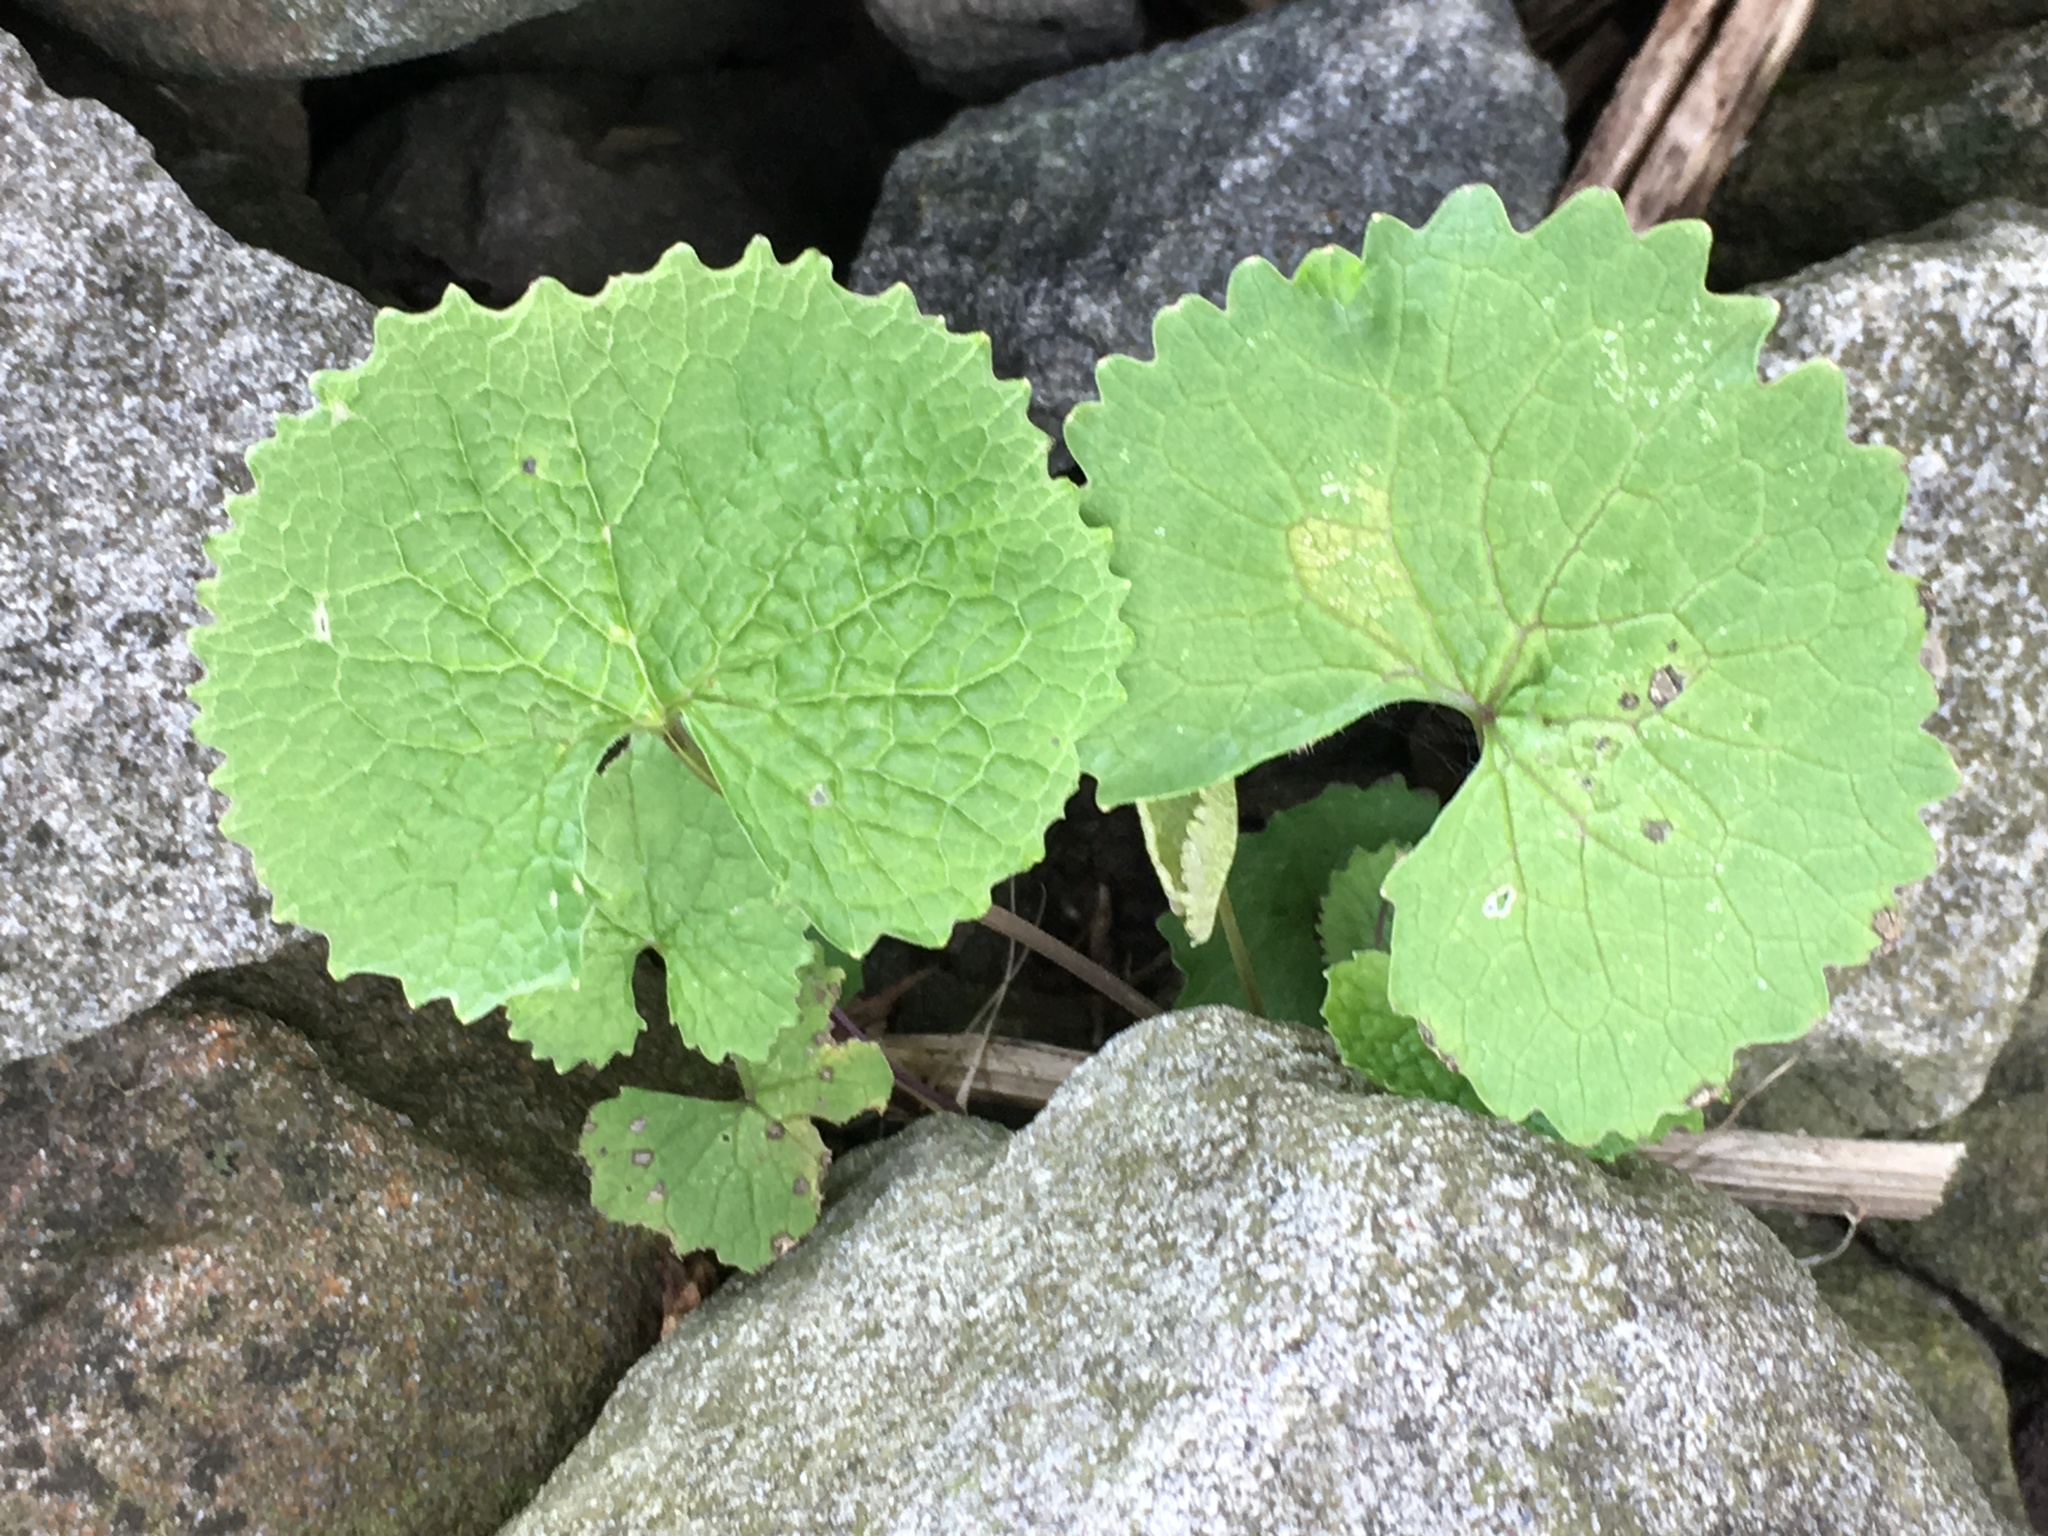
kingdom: Plantae
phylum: Tracheophyta
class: Magnoliopsida
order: Brassicales
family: Brassicaceae
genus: Alliaria
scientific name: Alliaria petiolata
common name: Garlic mustard
